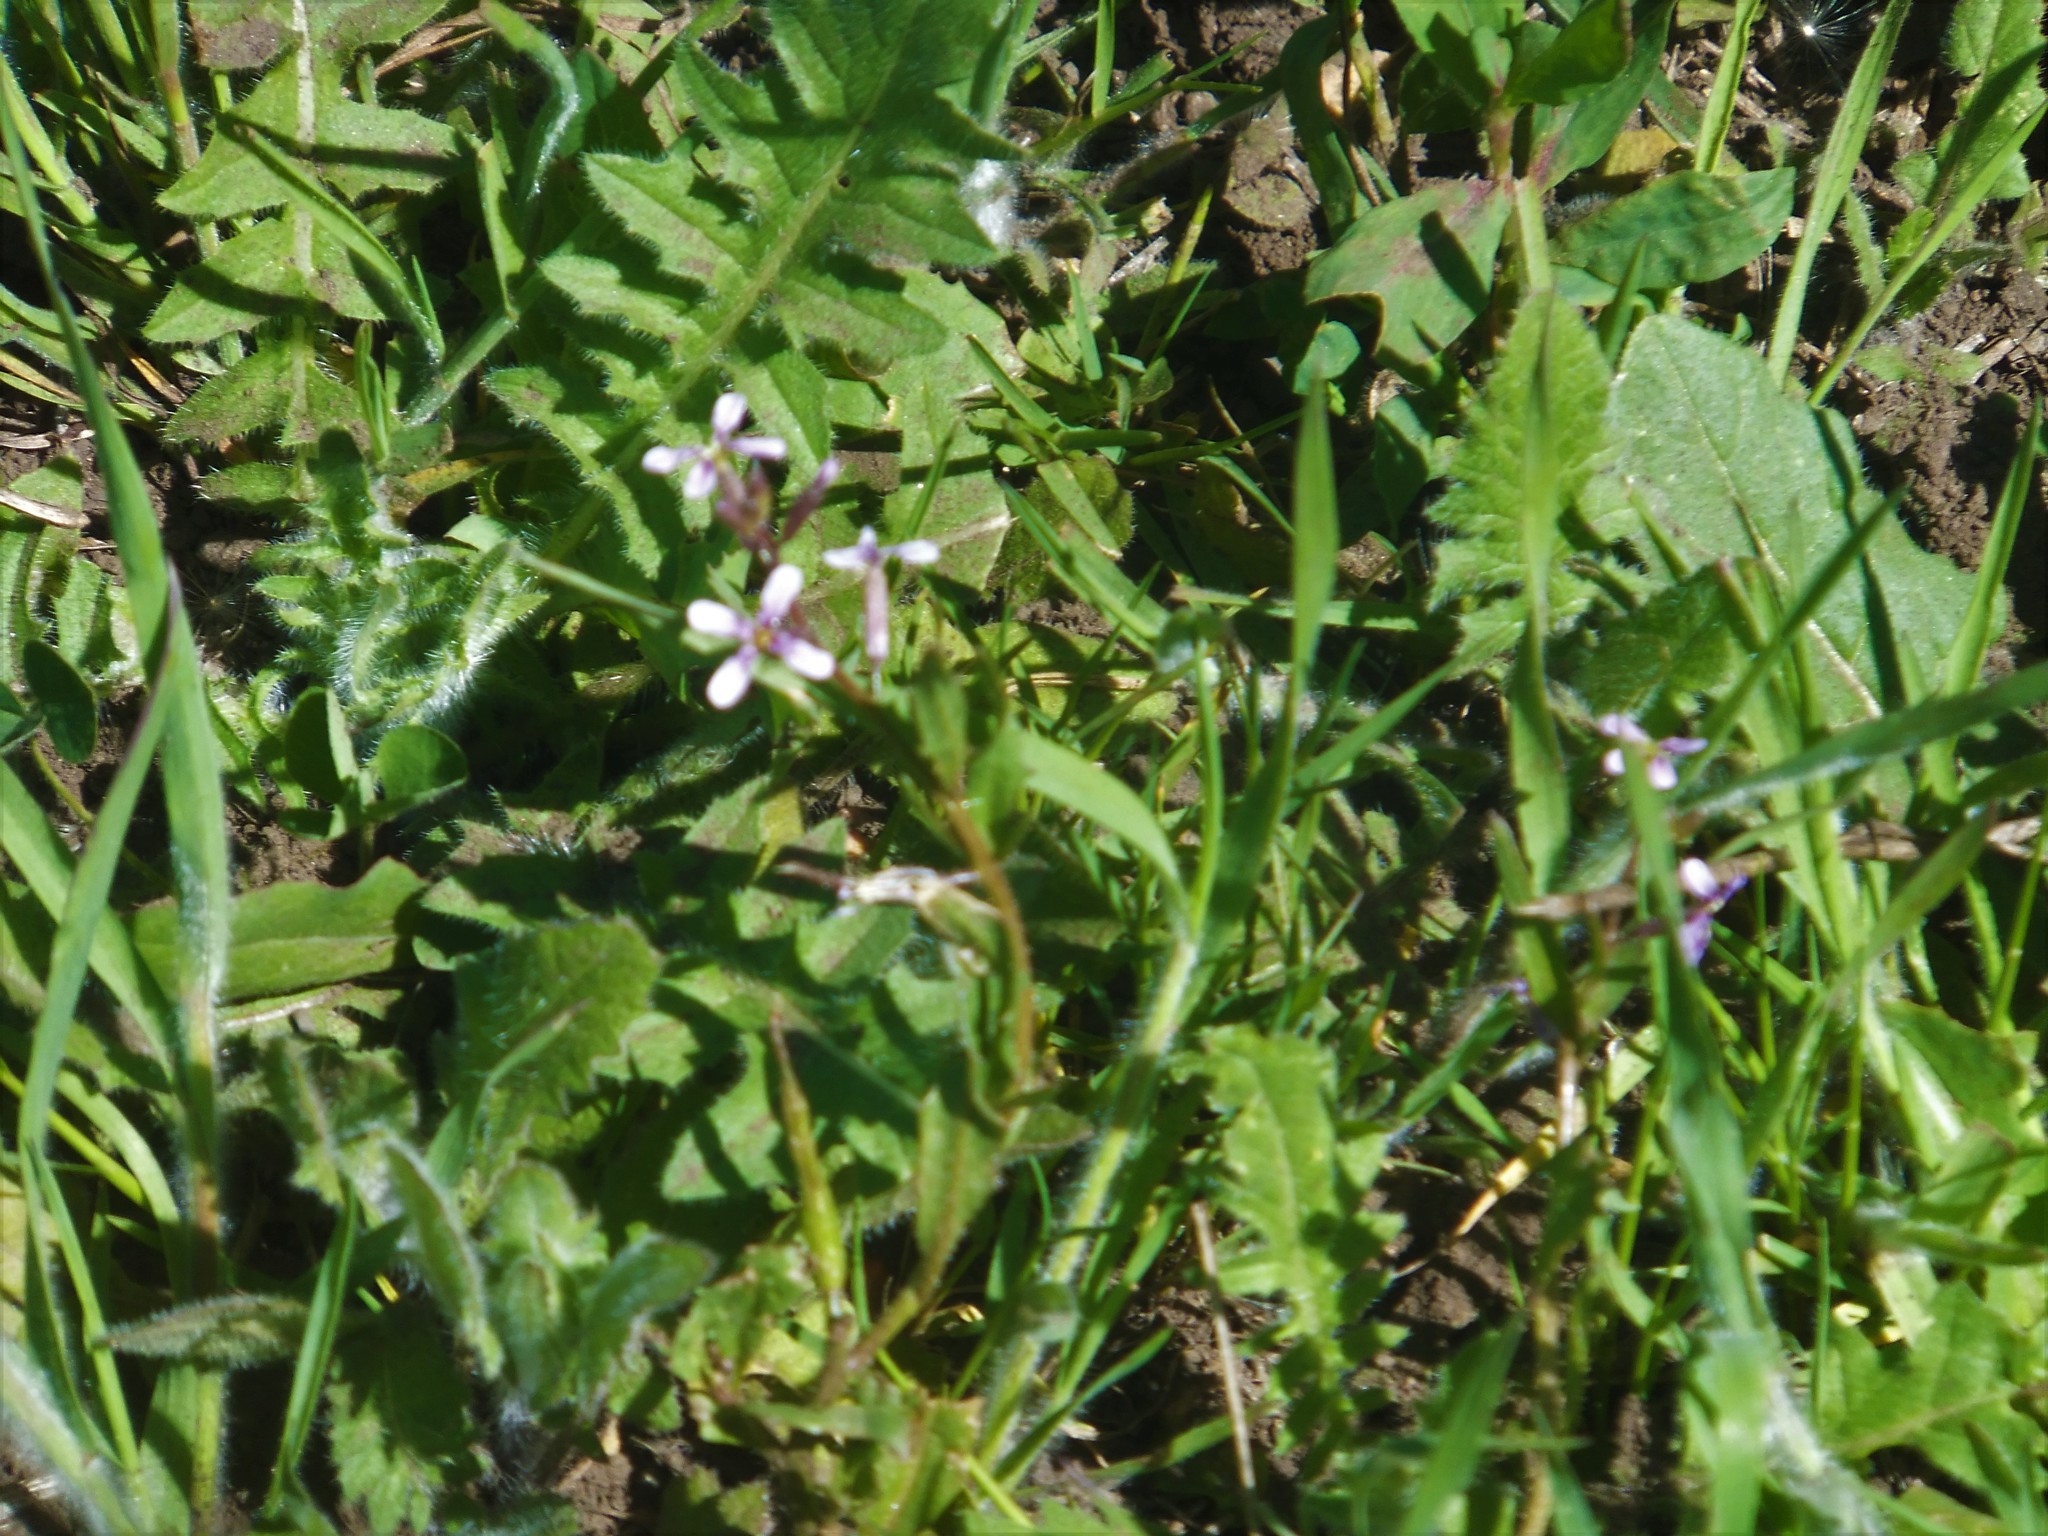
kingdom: Plantae
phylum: Tracheophyta
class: Magnoliopsida
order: Brassicales
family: Brassicaceae
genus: Chorispora
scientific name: Chorispora tenella
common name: Crossflower
